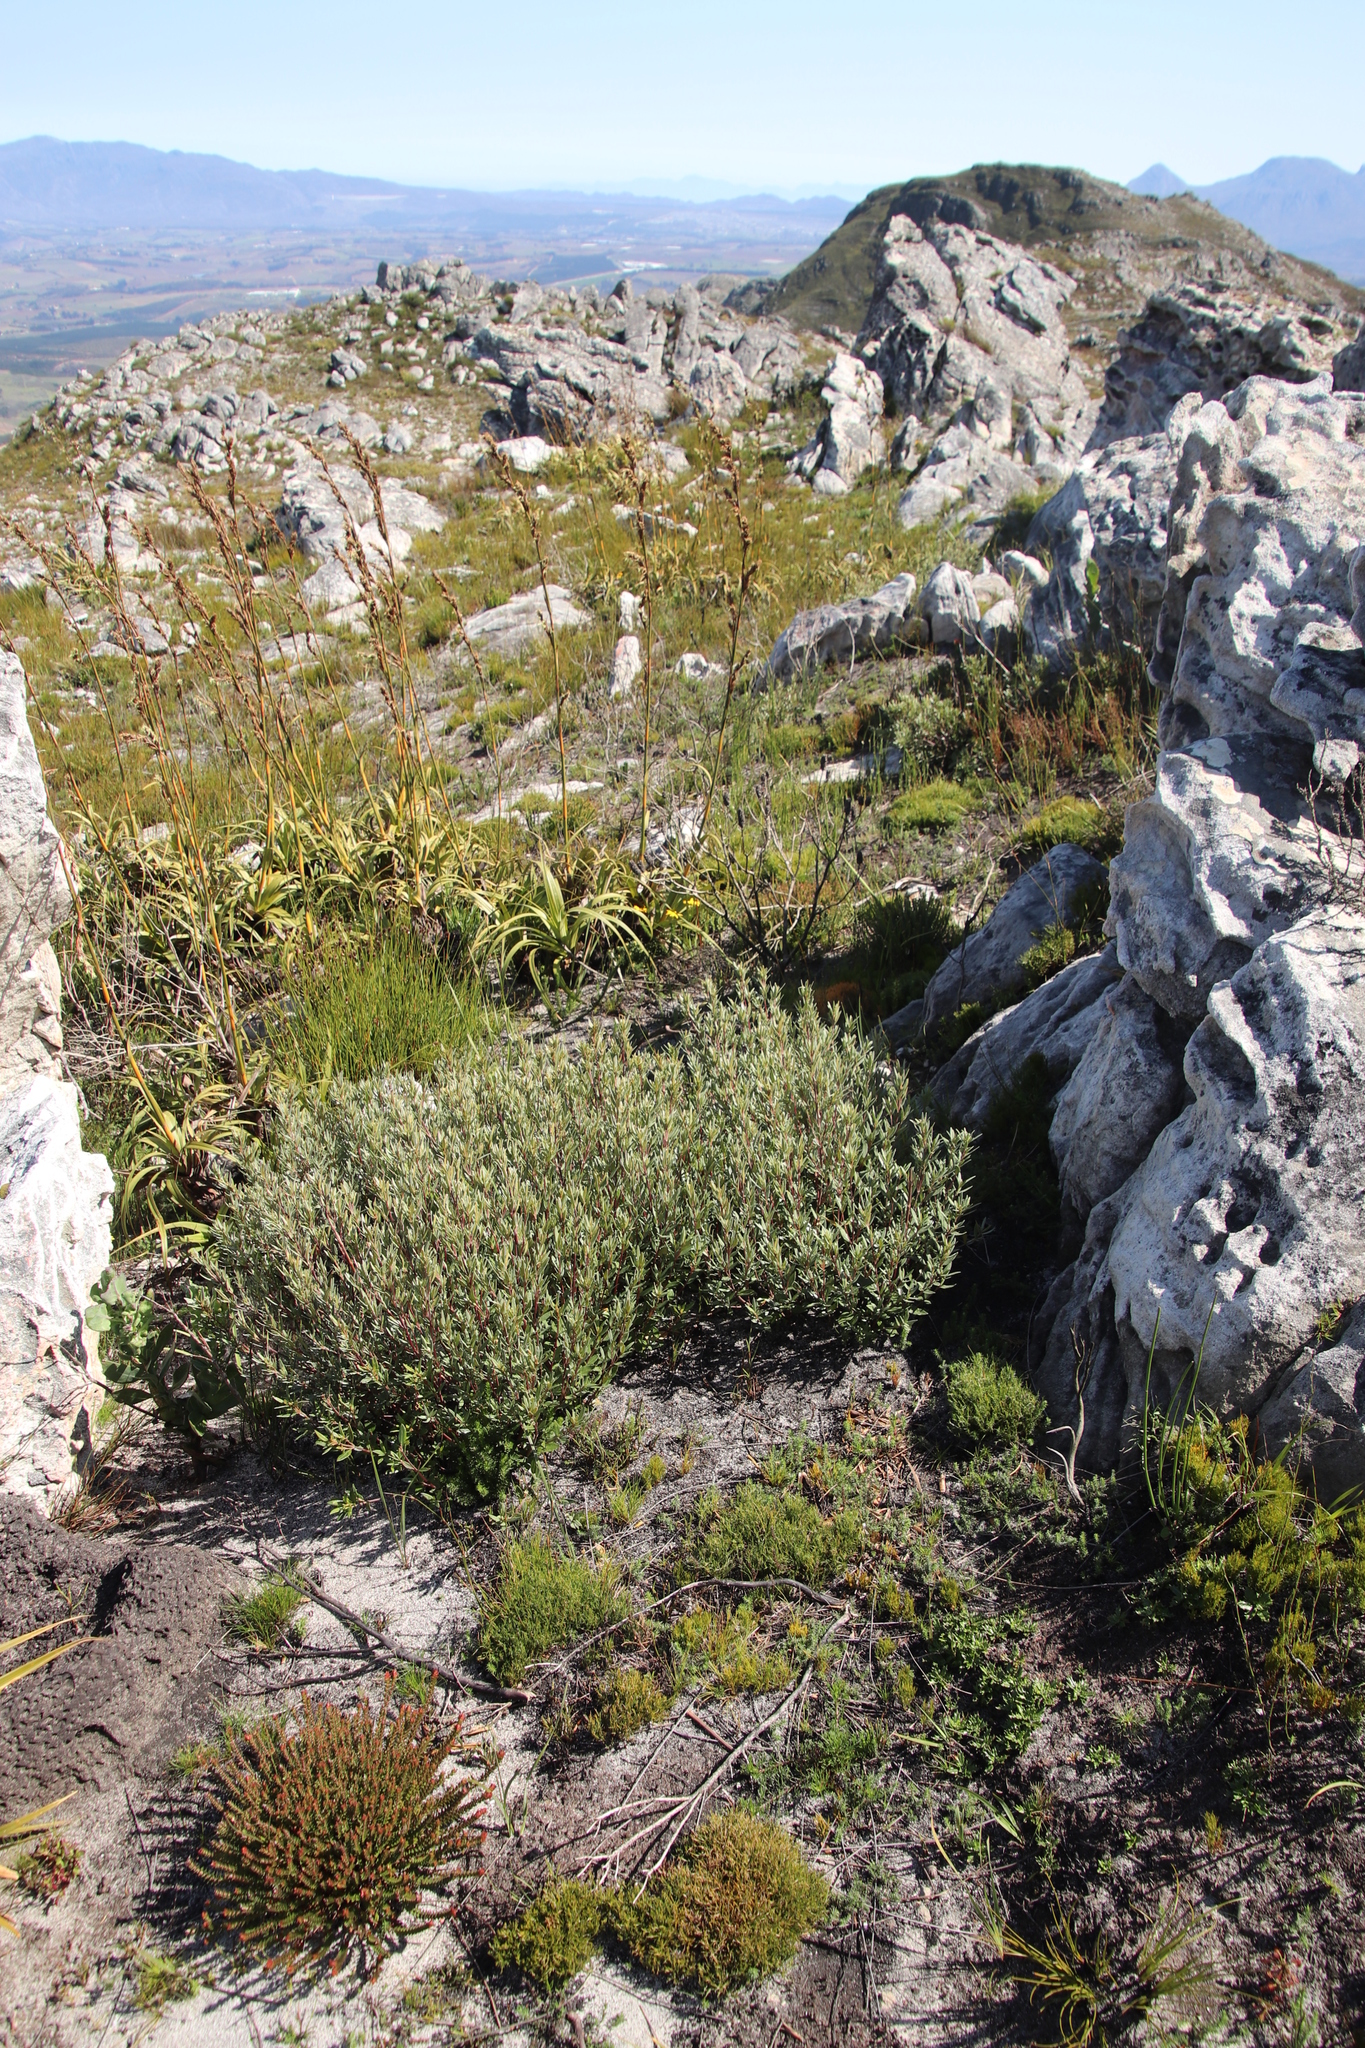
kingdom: Plantae
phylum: Tracheophyta
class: Magnoliopsida
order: Cornales
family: Grubbiaceae
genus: Grubbia
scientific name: Grubbia tomentosa
